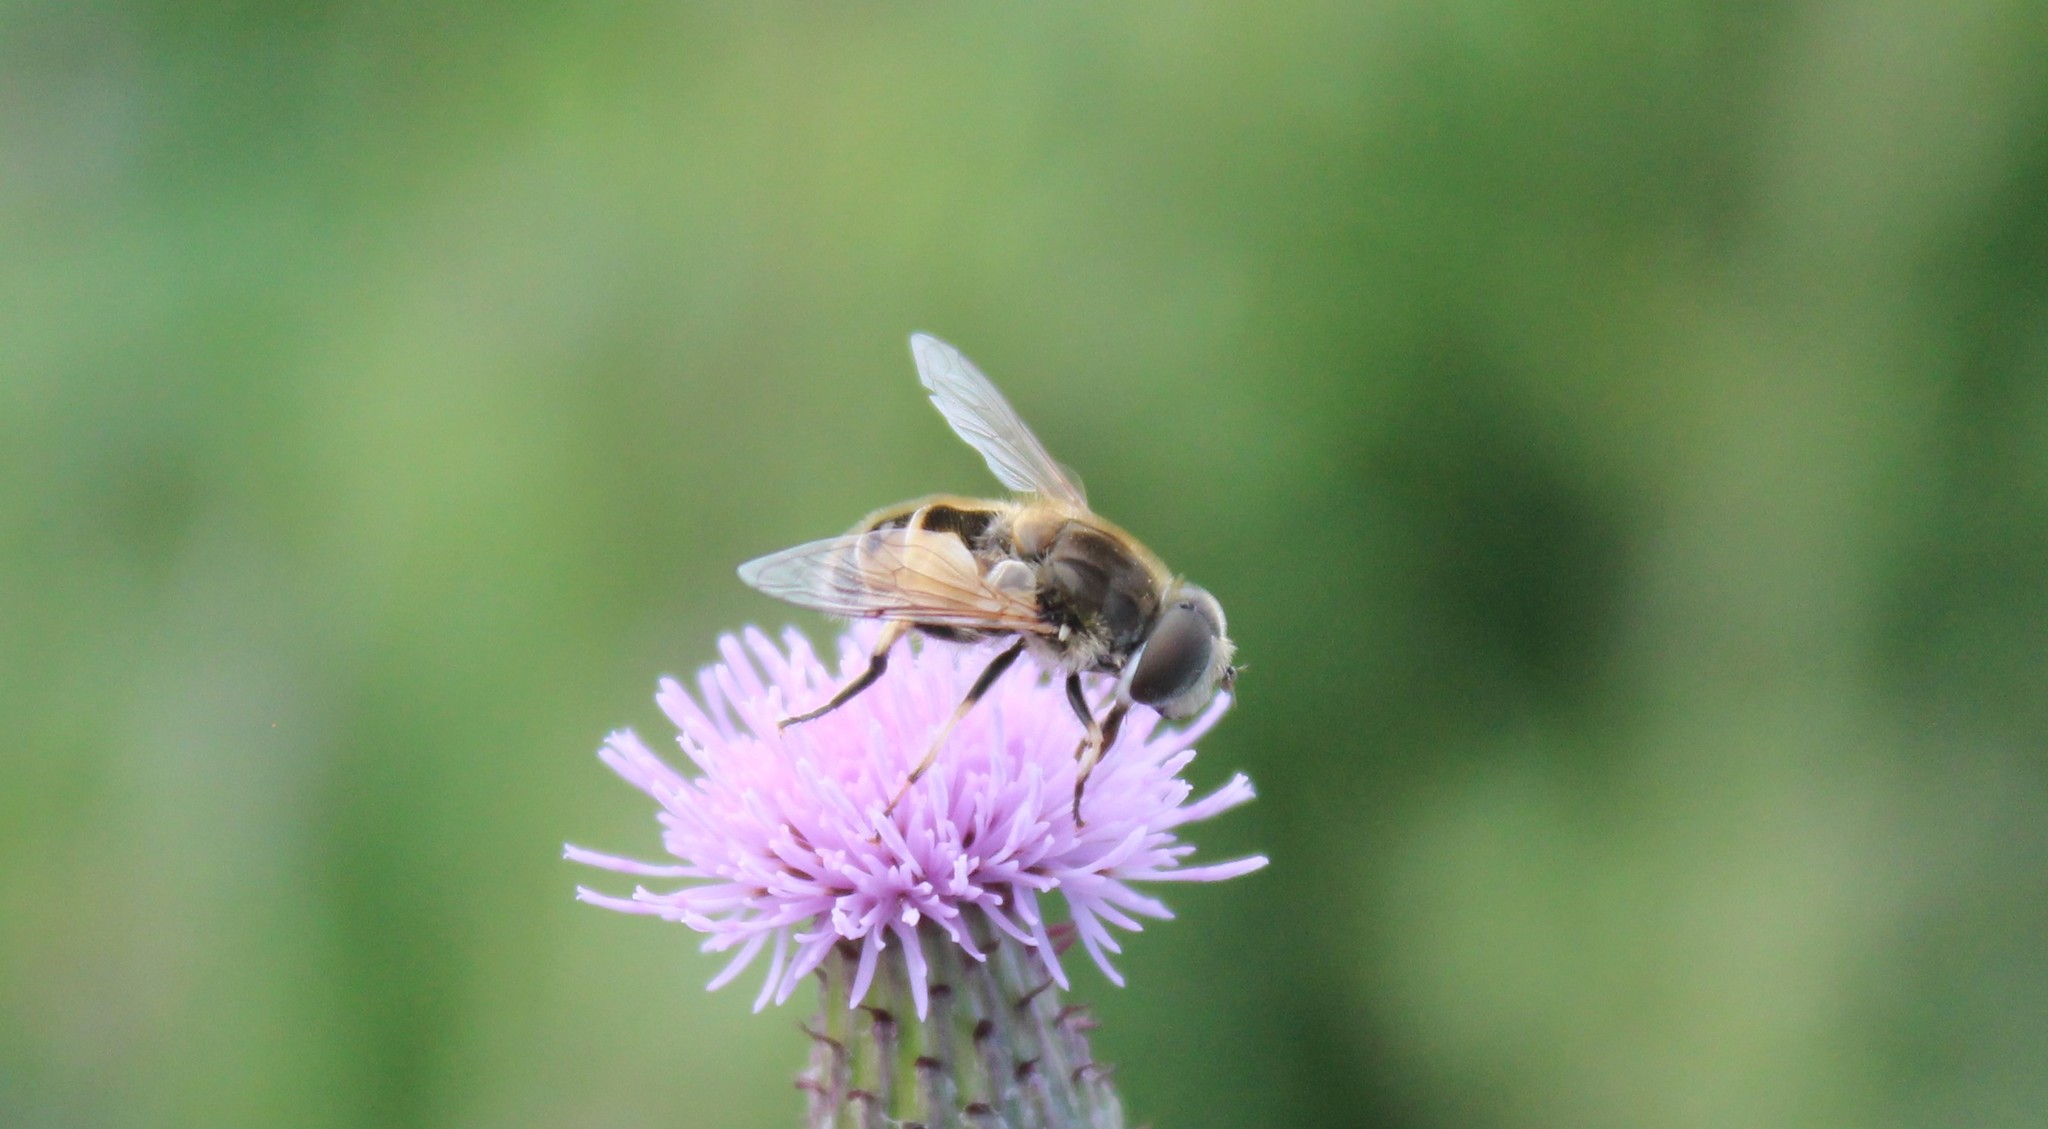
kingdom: Animalia
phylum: Arthropoda
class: Insecta
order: Diptera
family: Syrphidae
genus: Eristalis
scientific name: Eristalis arbustorum
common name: Hover fly
